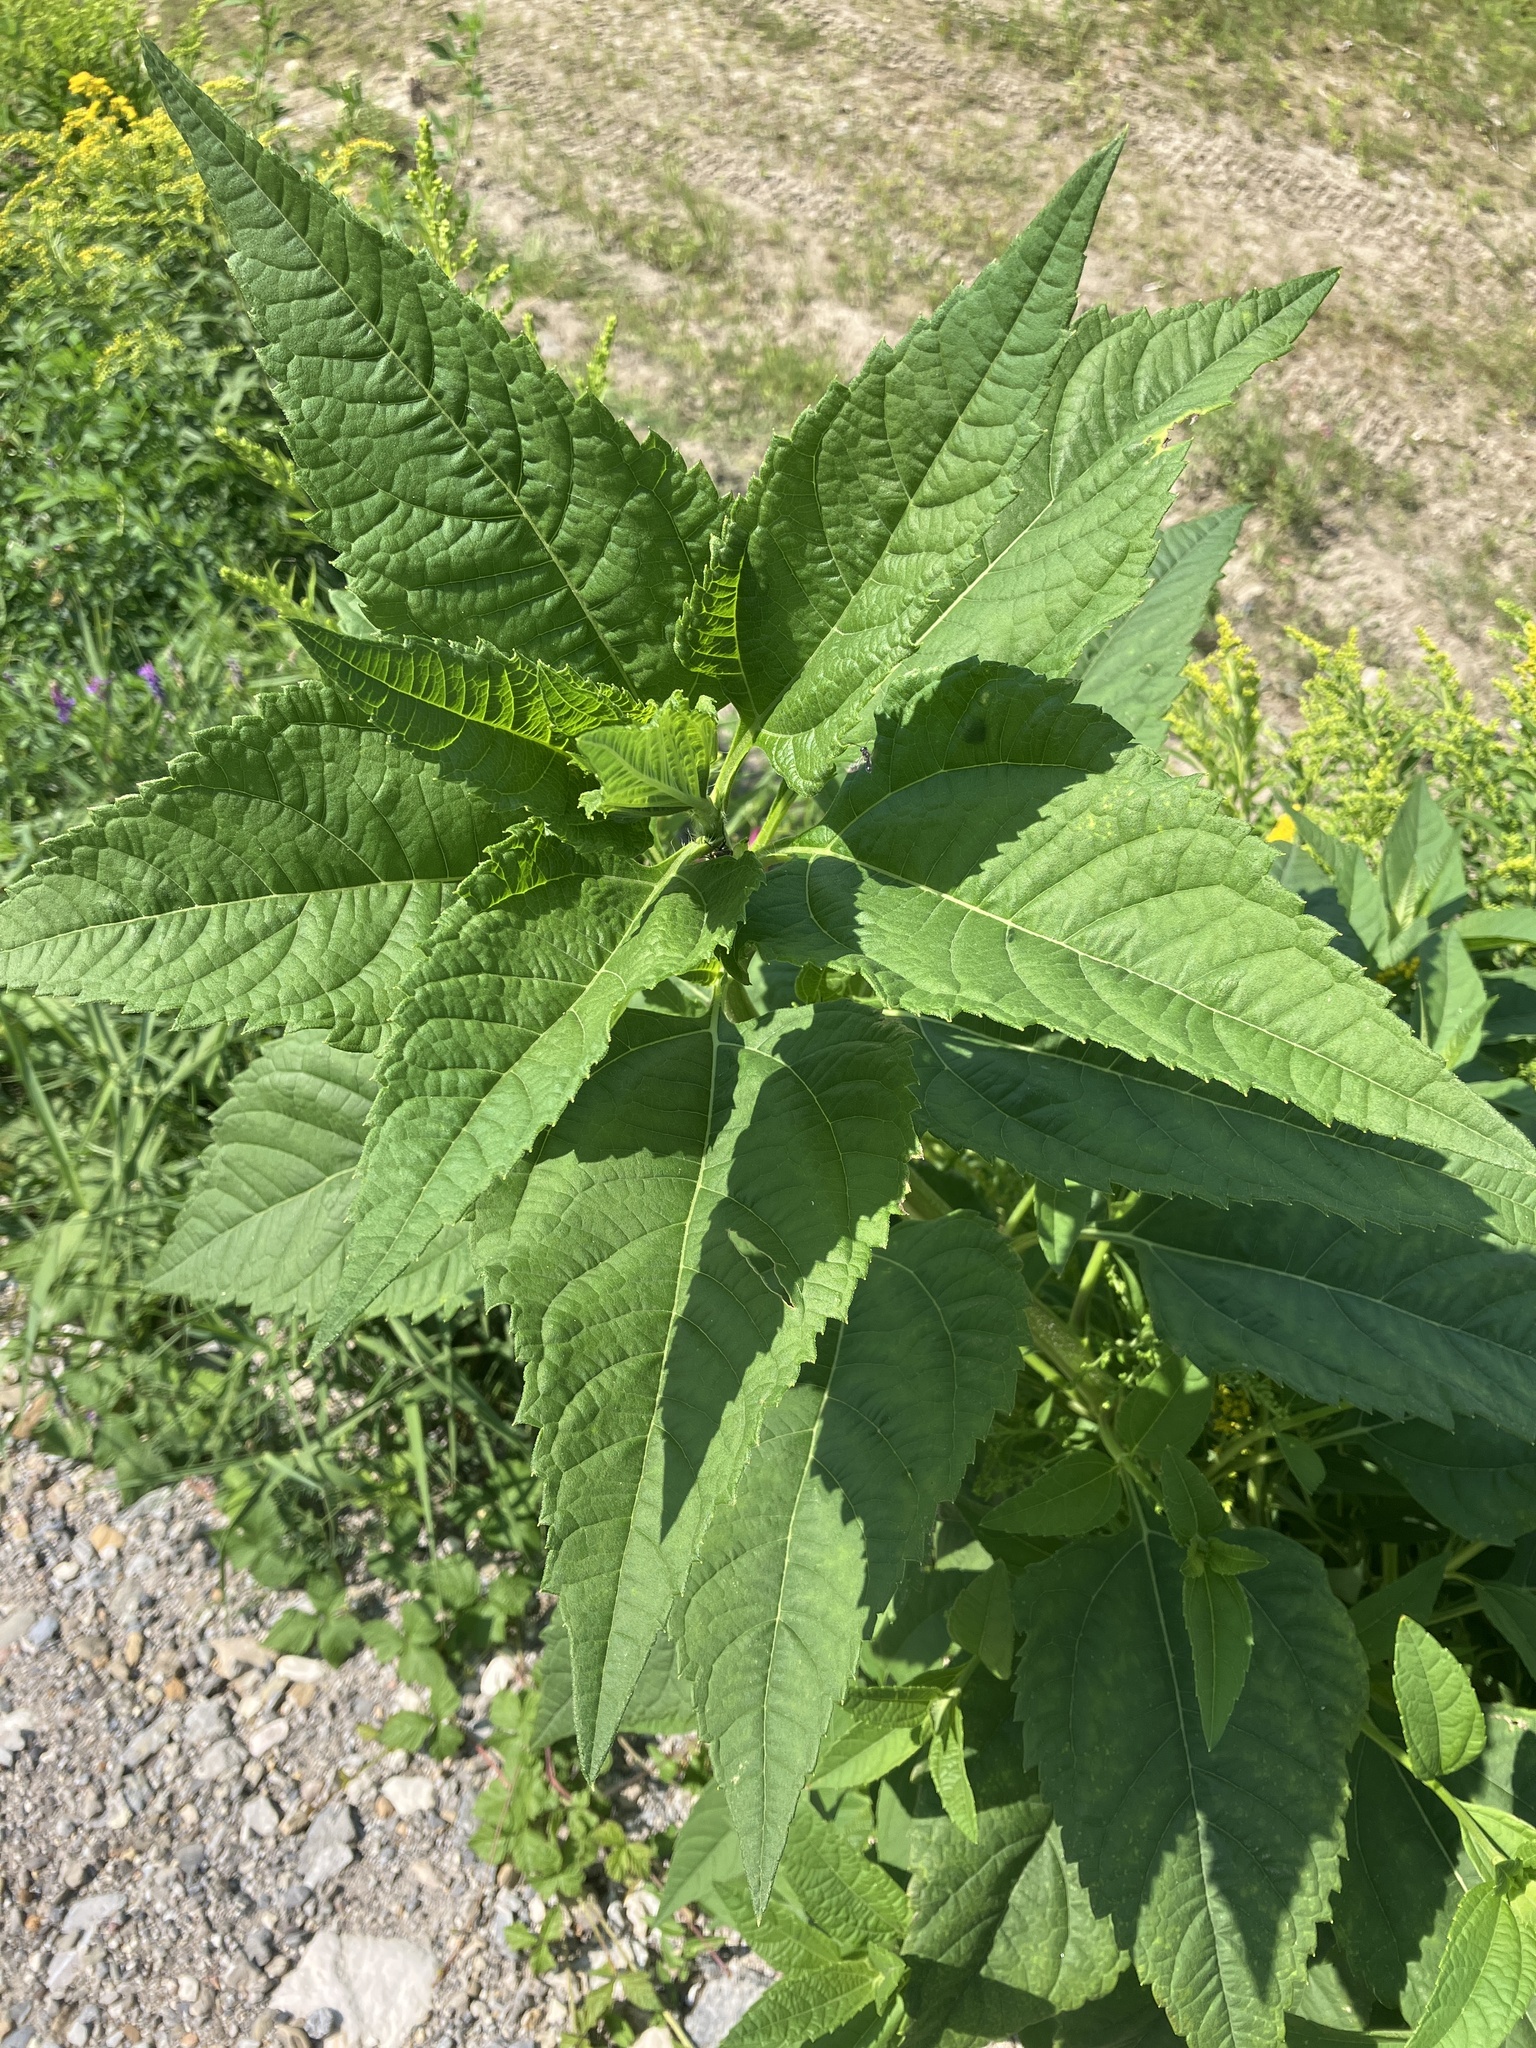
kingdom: Plantae
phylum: Tracheophyta
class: Magnoliopsida
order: Asterales
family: Asteraceae
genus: Helianthus
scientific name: Helianthus tuberosus
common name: Jerusalem artichoke
